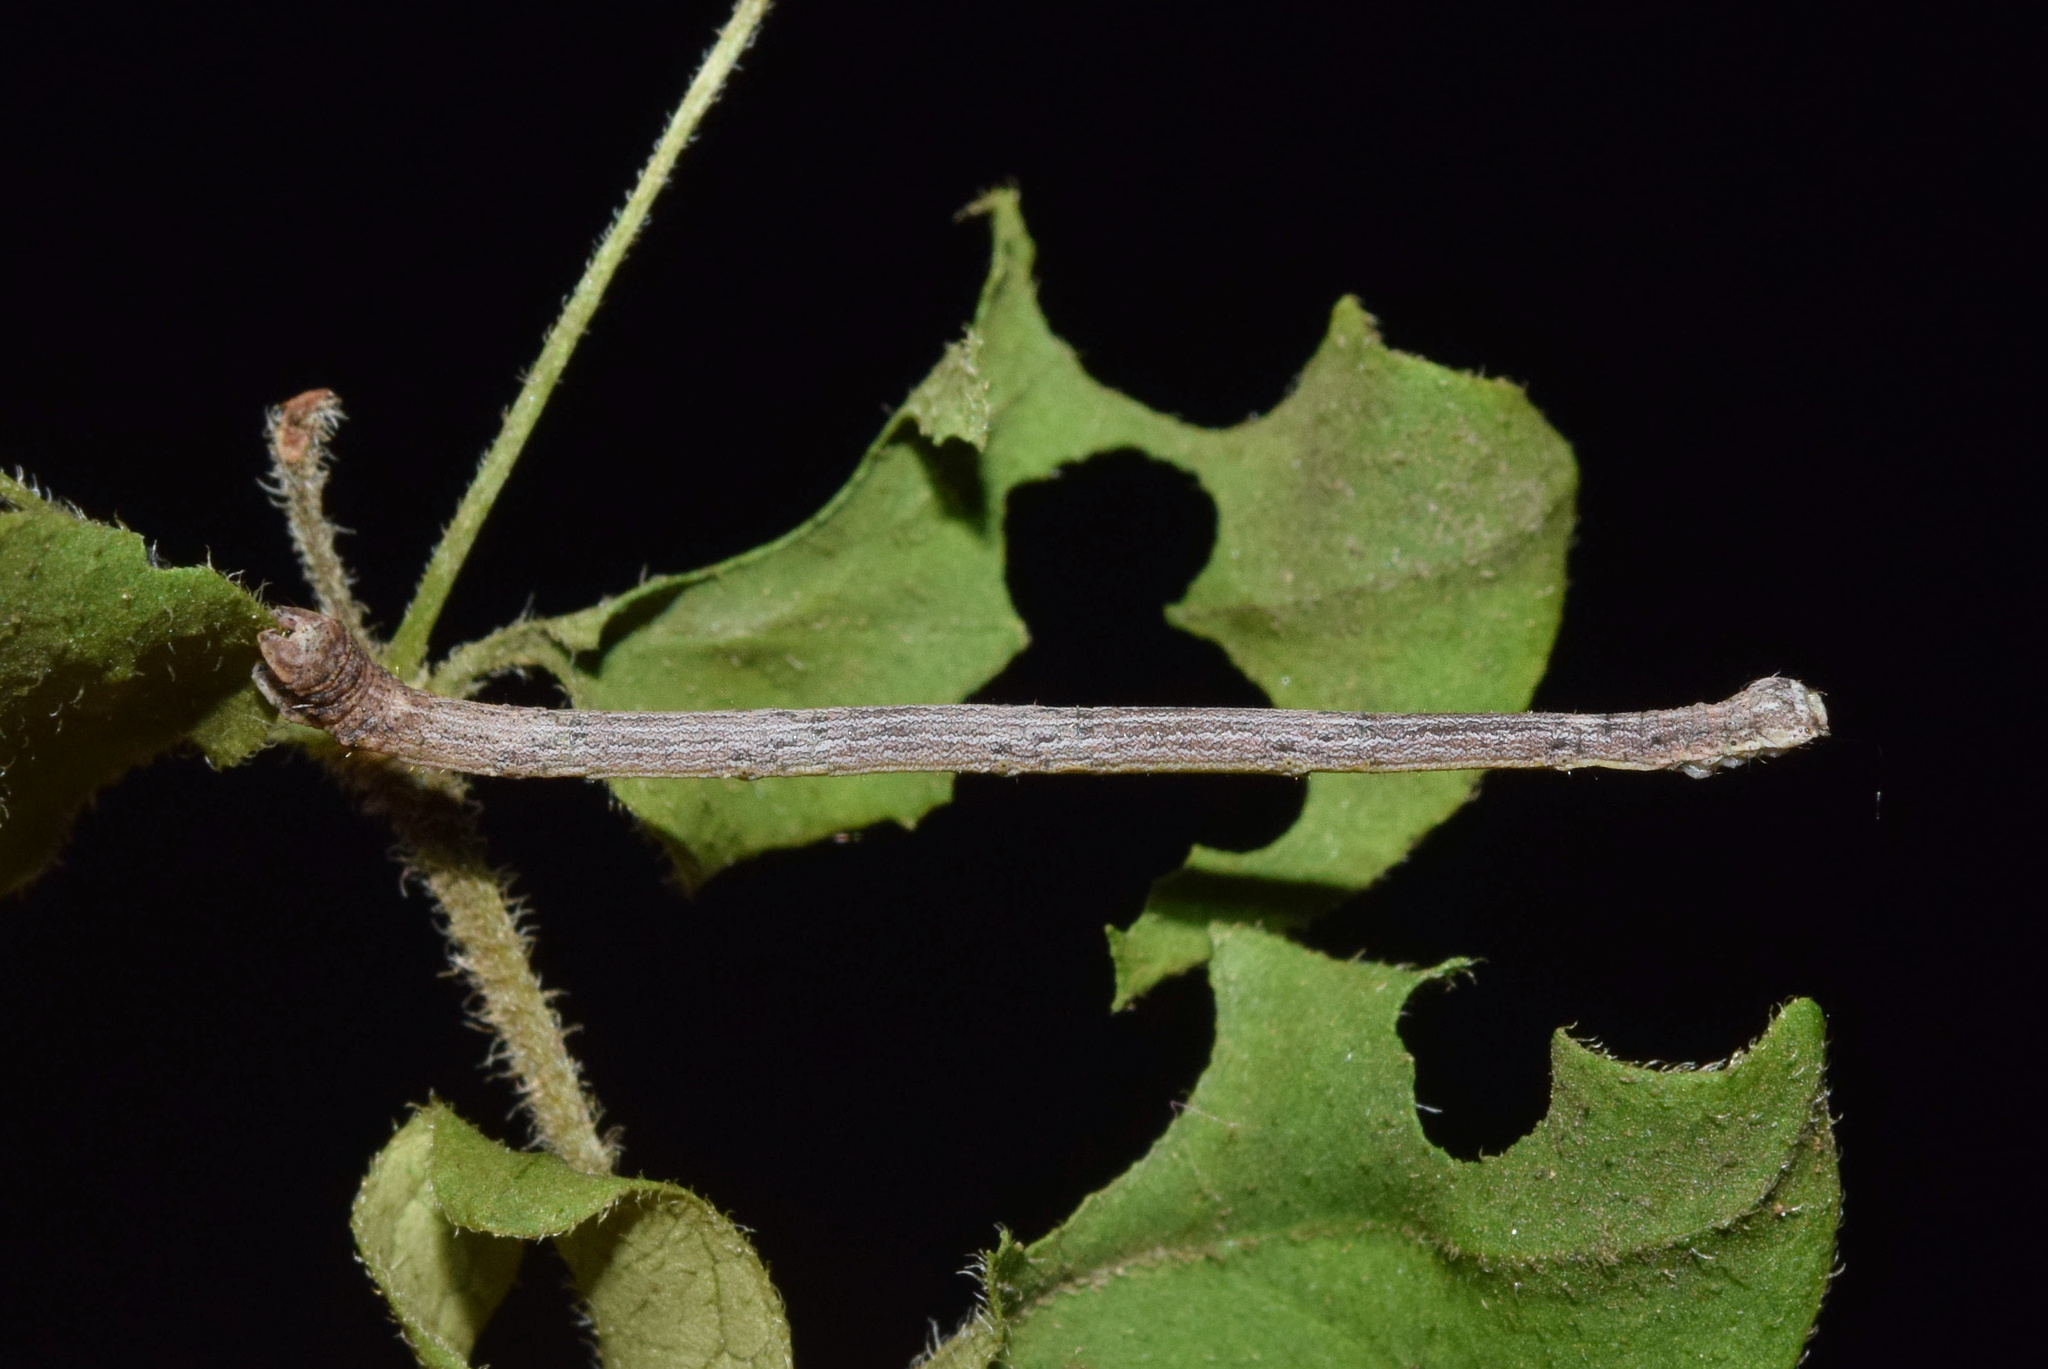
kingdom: Animalia
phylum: Arthropoda
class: Insecta
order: Lepidoptera
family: Geometridae
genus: Epicosymbia
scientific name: Epicosymbia nitidata
